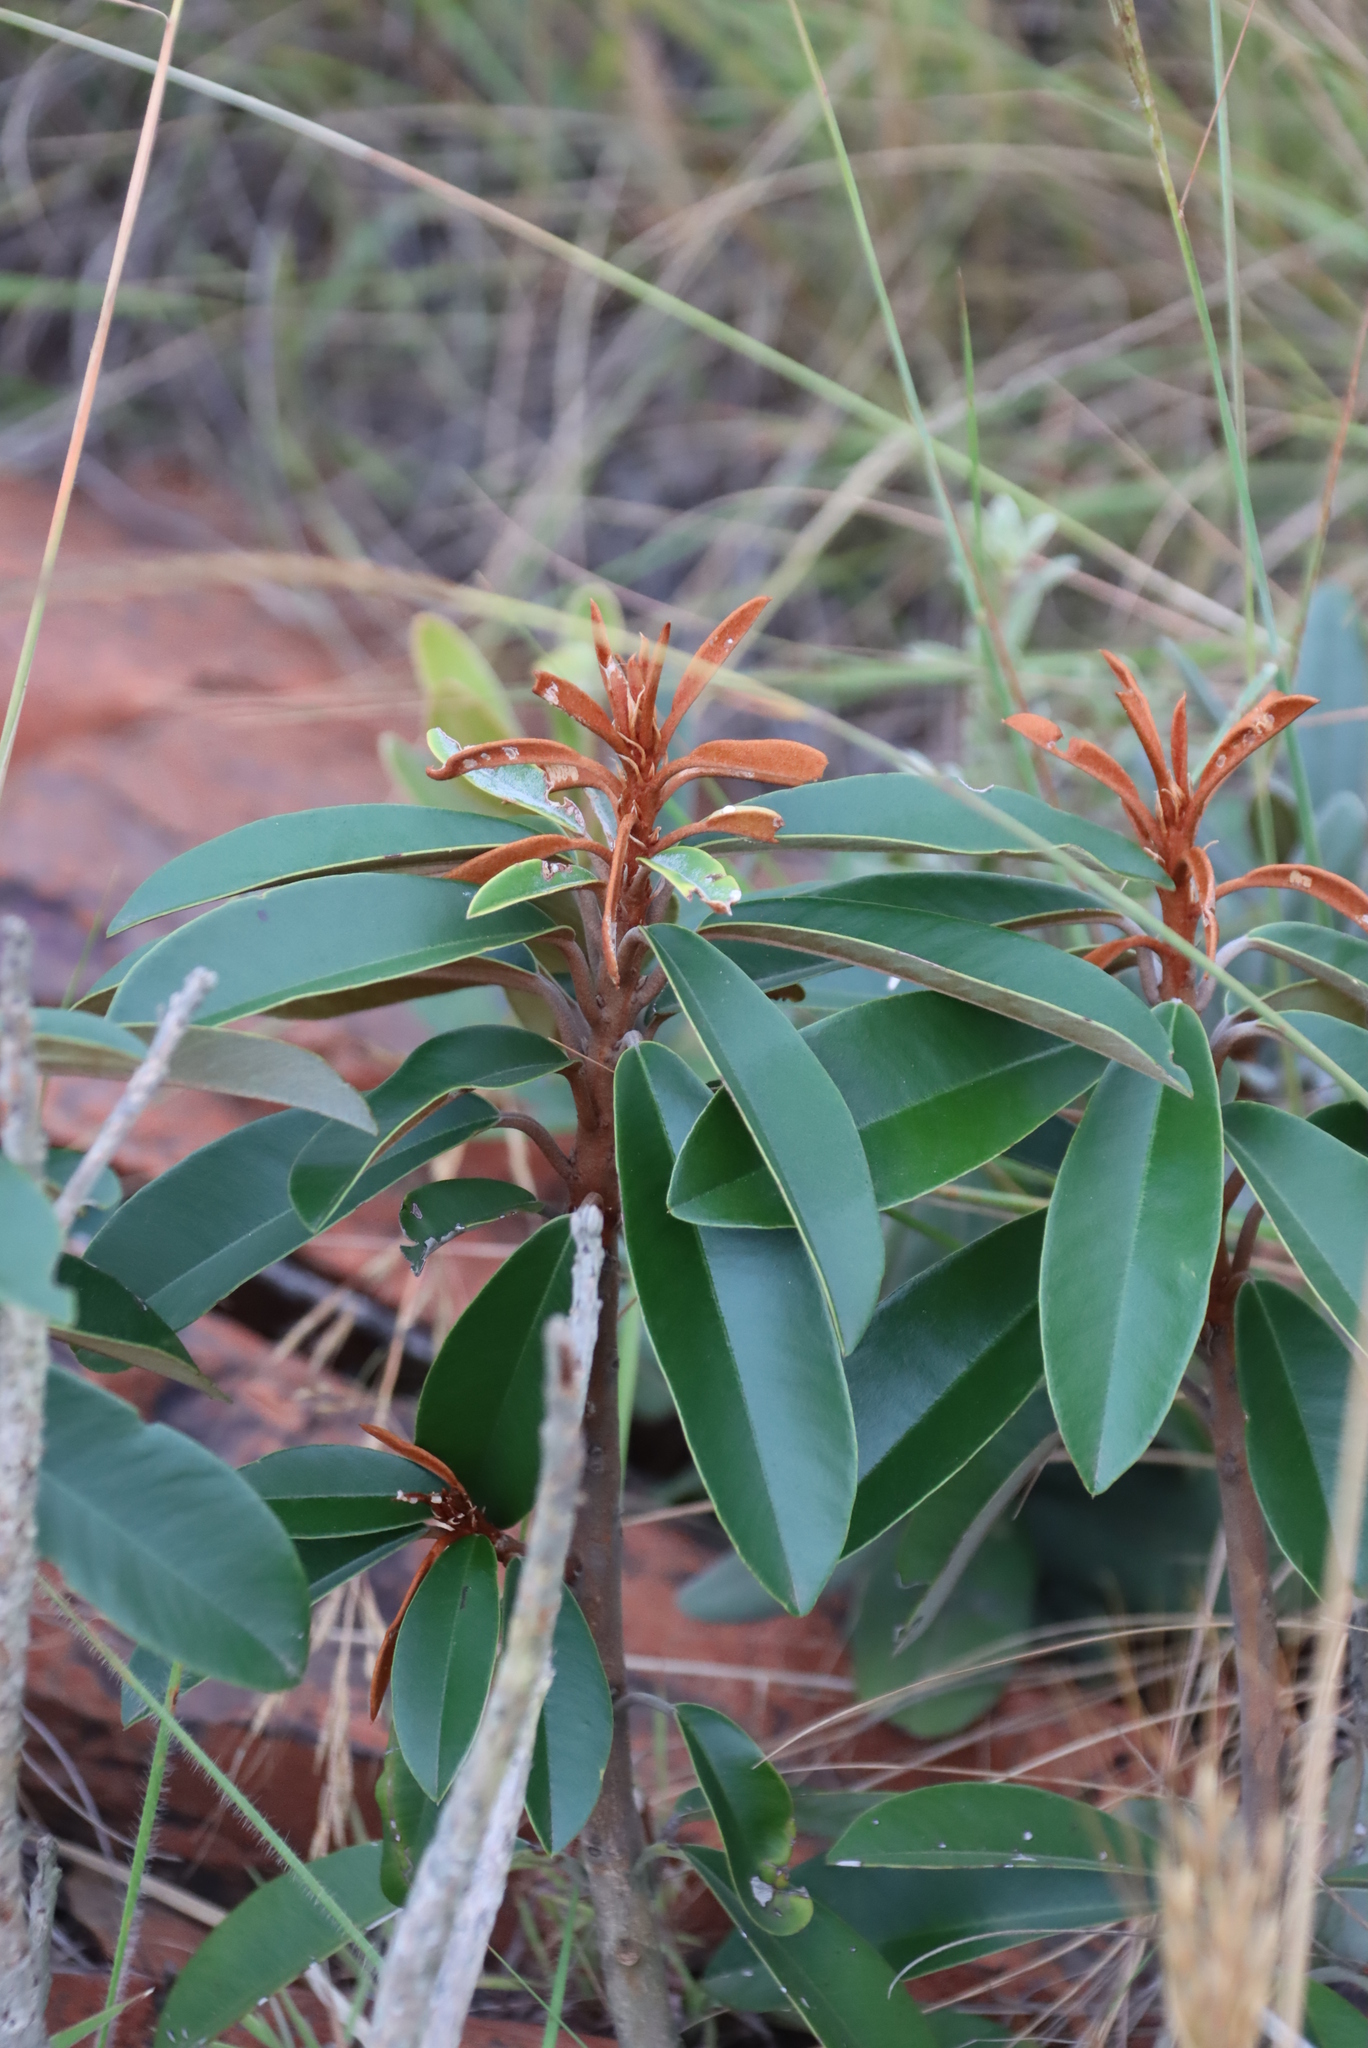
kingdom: Plantae
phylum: Tracheophyta
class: Magnoliopsida
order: Ericales
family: Sapotaceae
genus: Englerophytum
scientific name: Englerophytum magalismontanum
